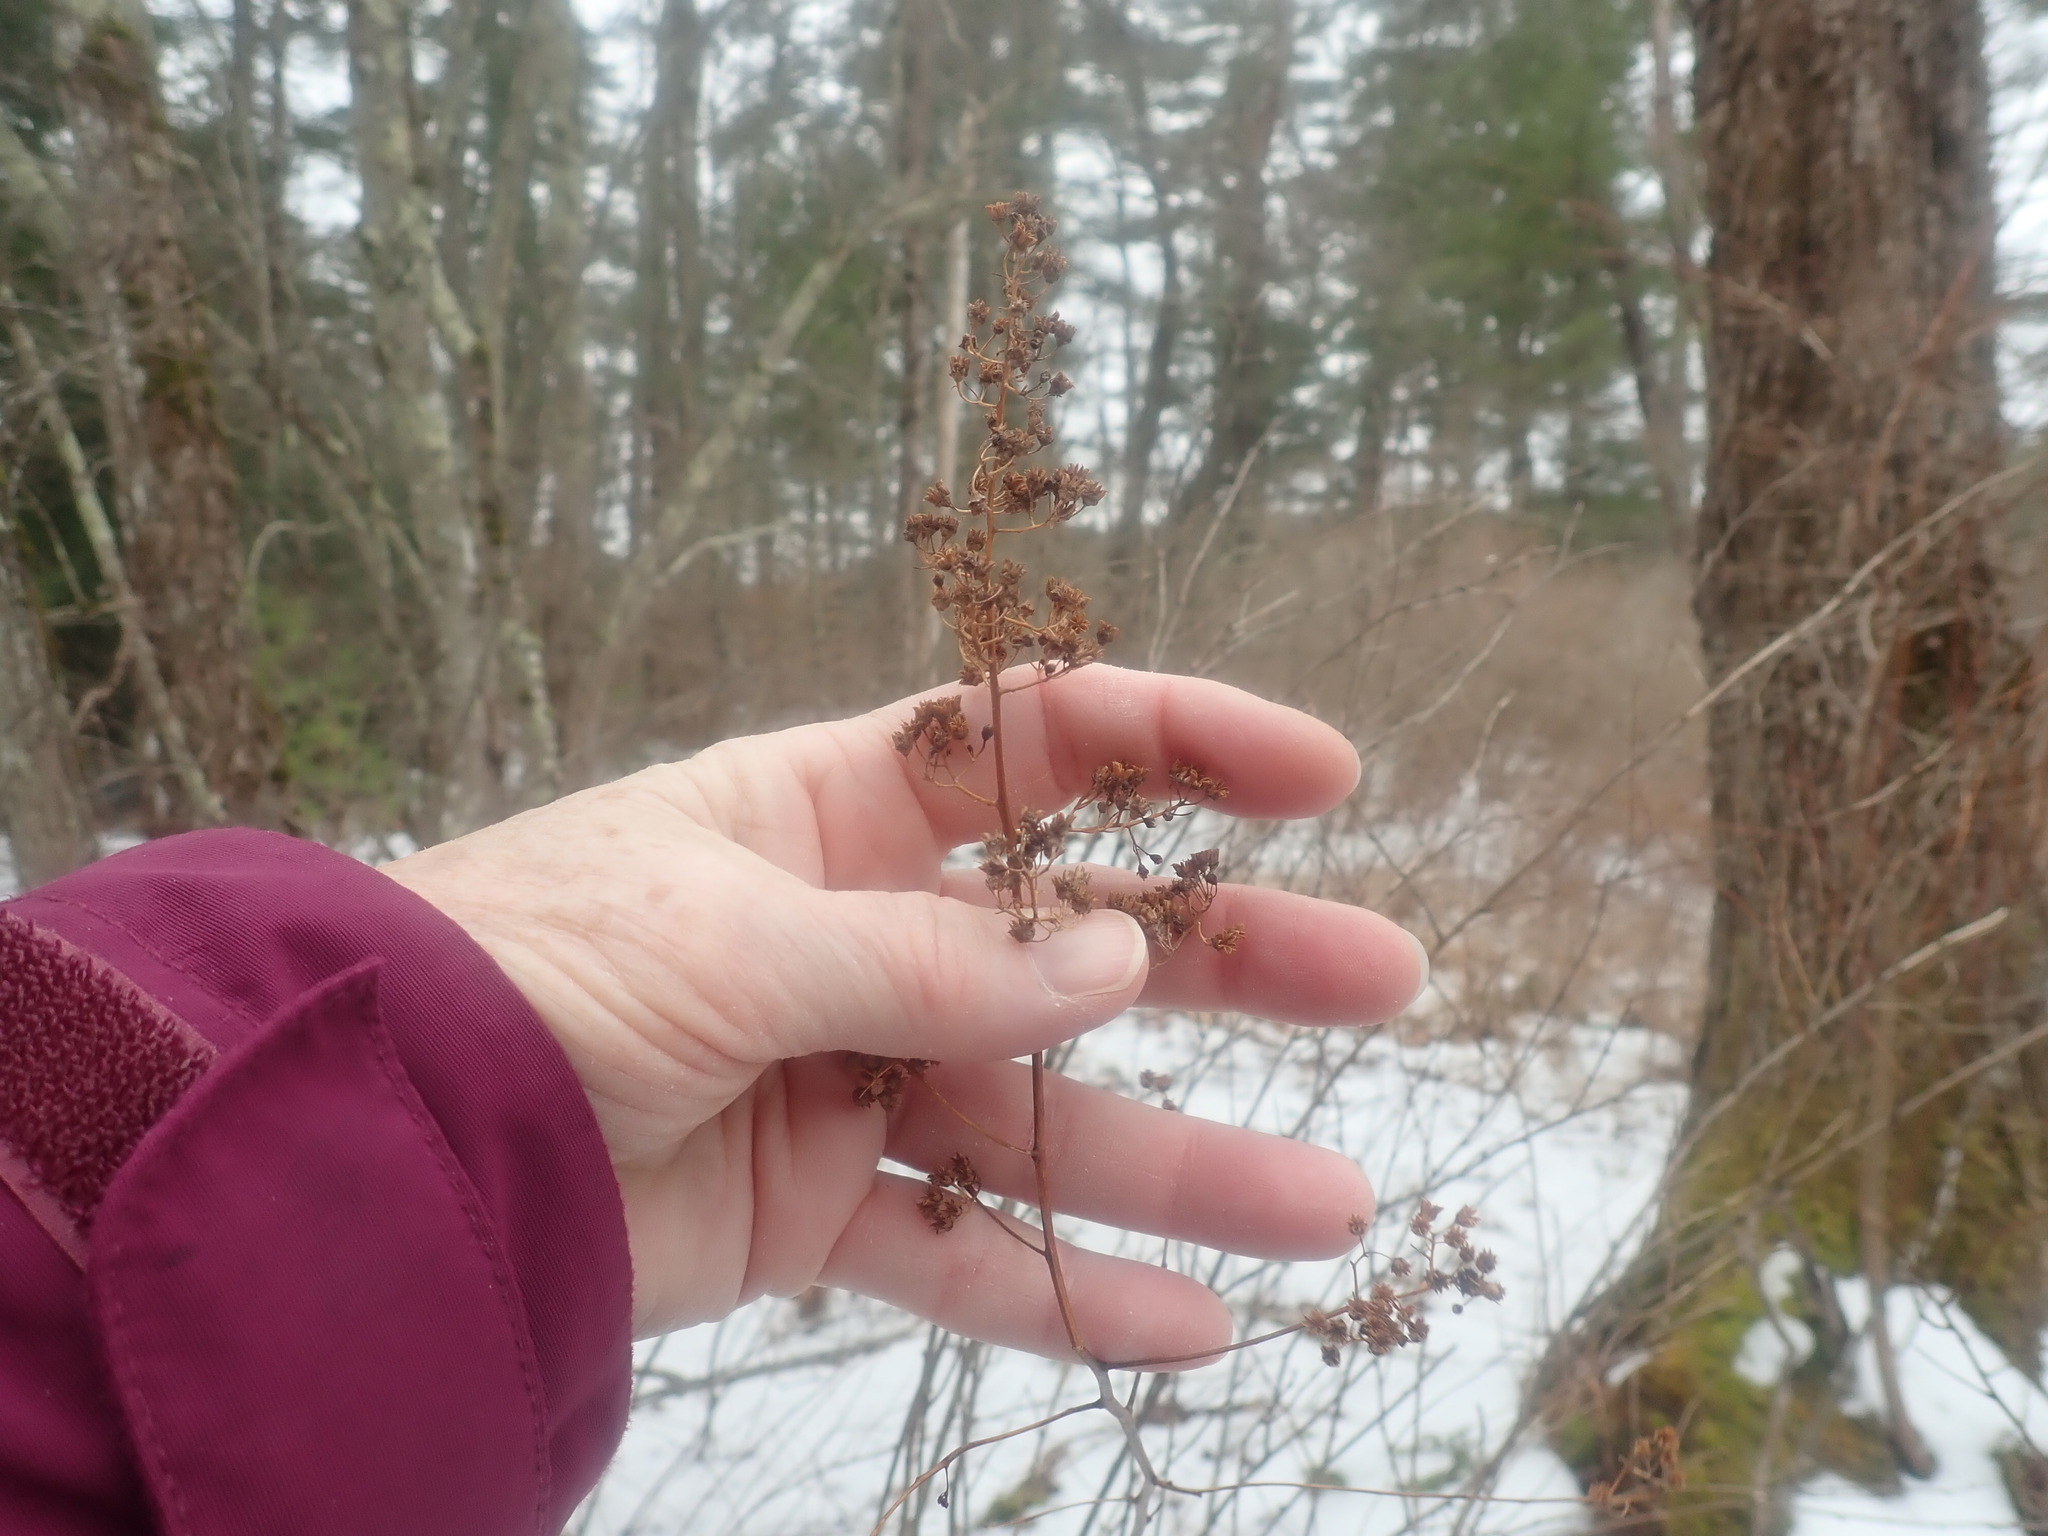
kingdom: Plantae
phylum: Tracheophyta
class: Magnoliopsida
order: Rosales
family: Rosaceae
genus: Spiraea
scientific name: Spiraea alba
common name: Pale bridewort
